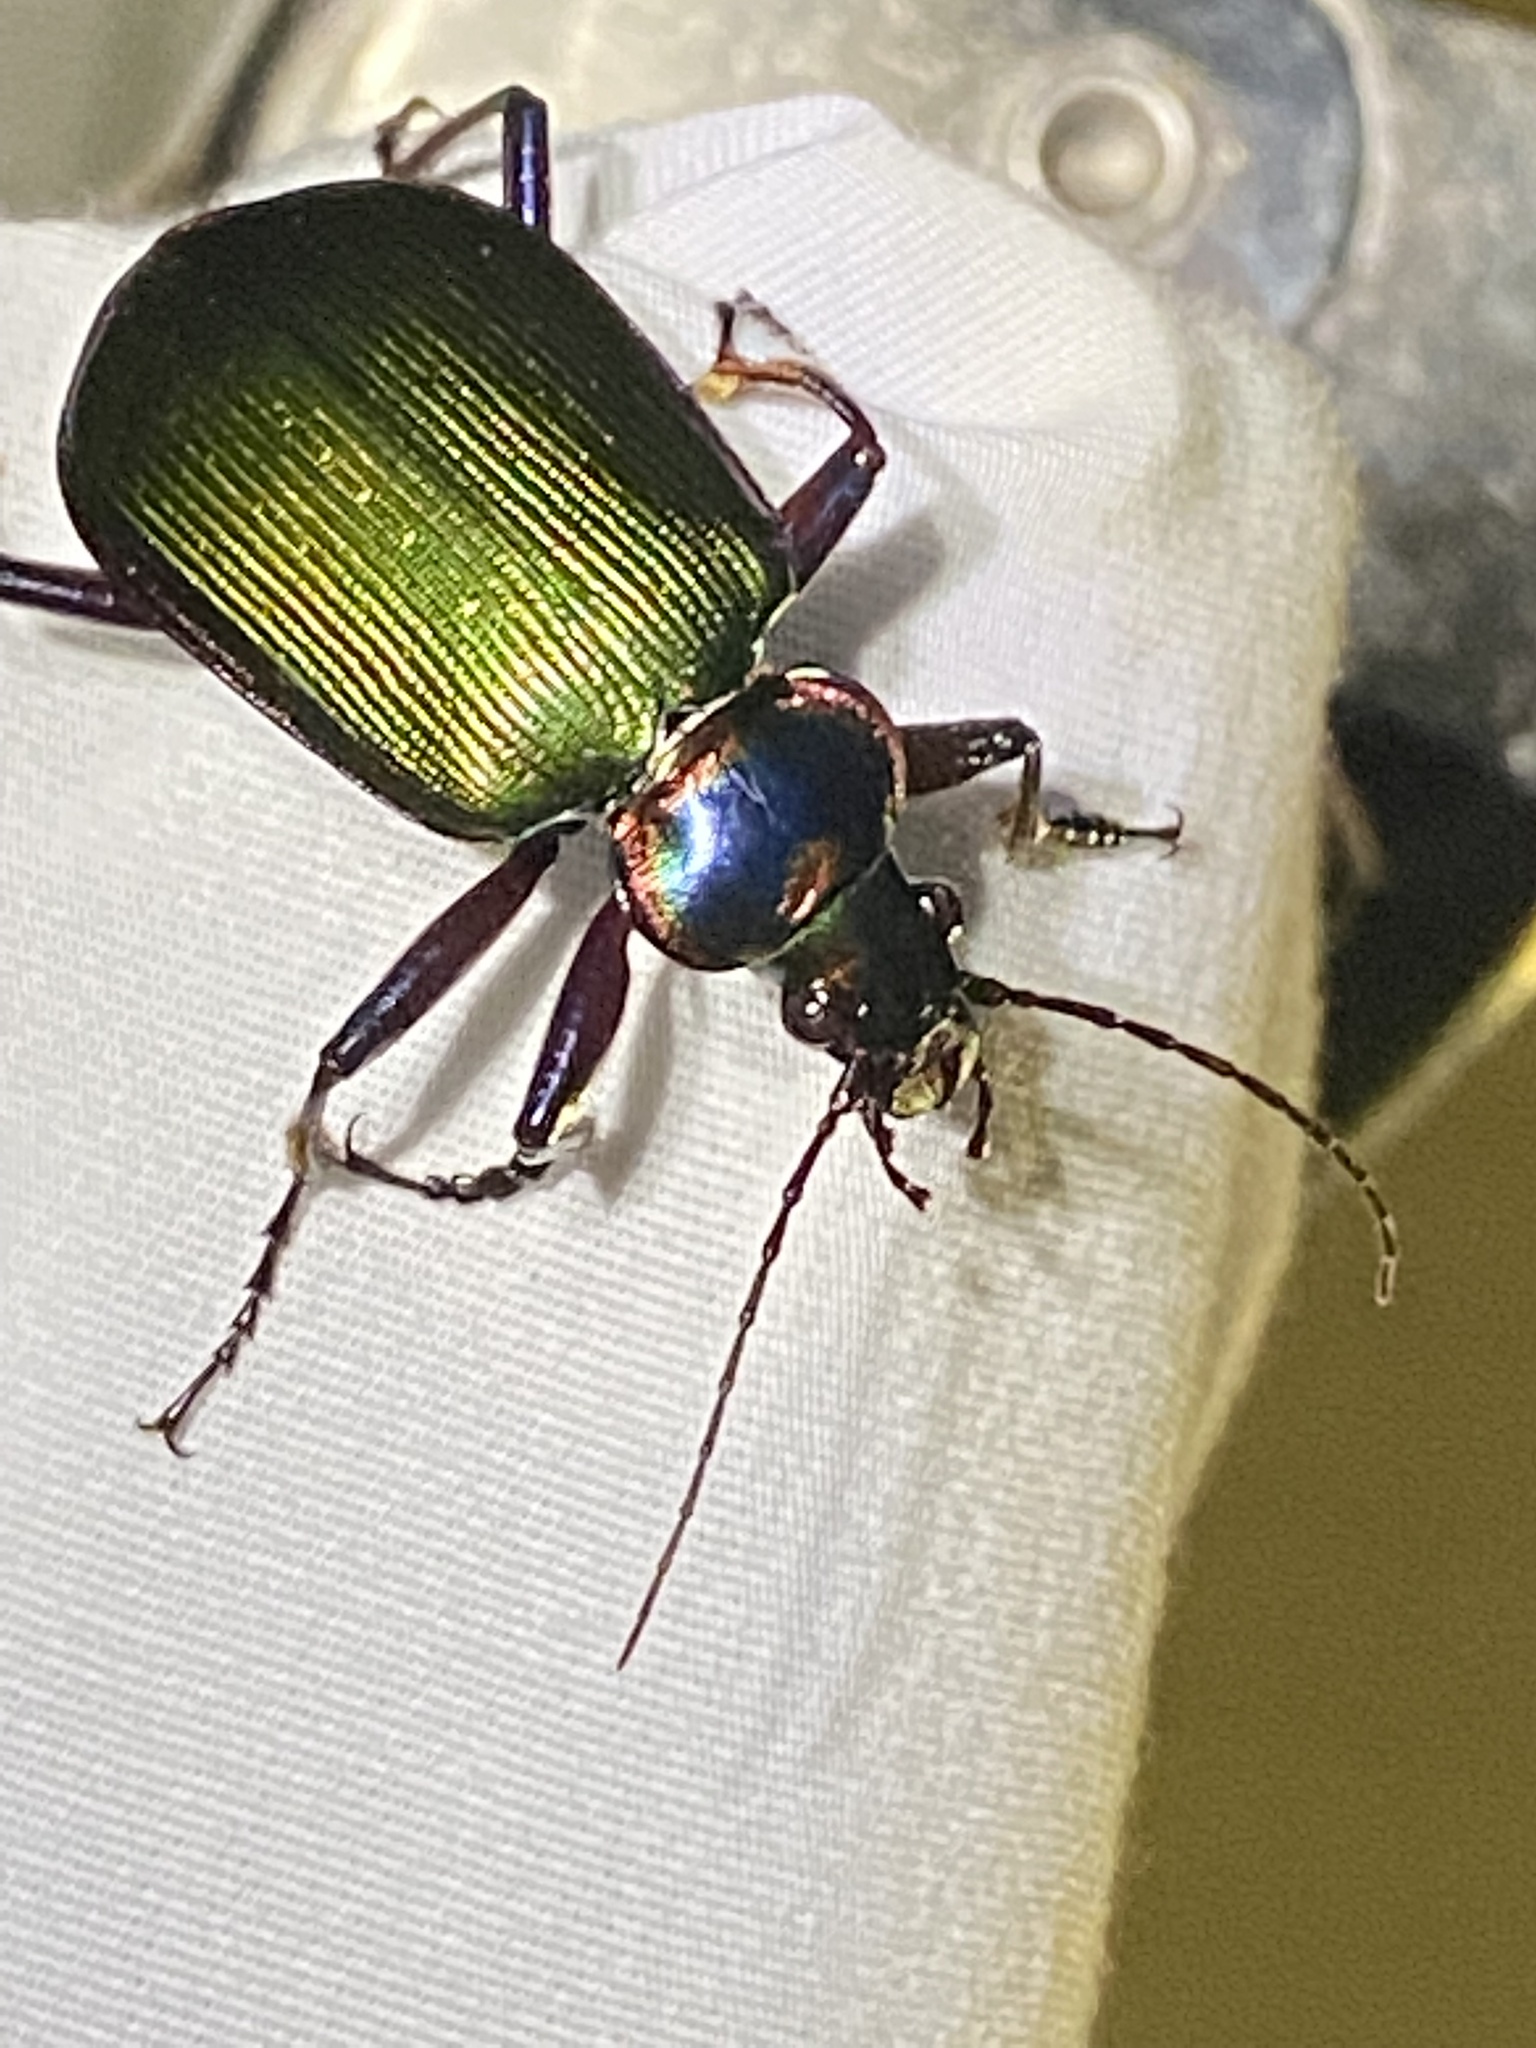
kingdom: Animalia
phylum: Arthropoda
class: Insecta
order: Coleoptera
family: Carabidae
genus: Calosoma
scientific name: Calosoma scrutator
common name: Fiery searcher beetle
